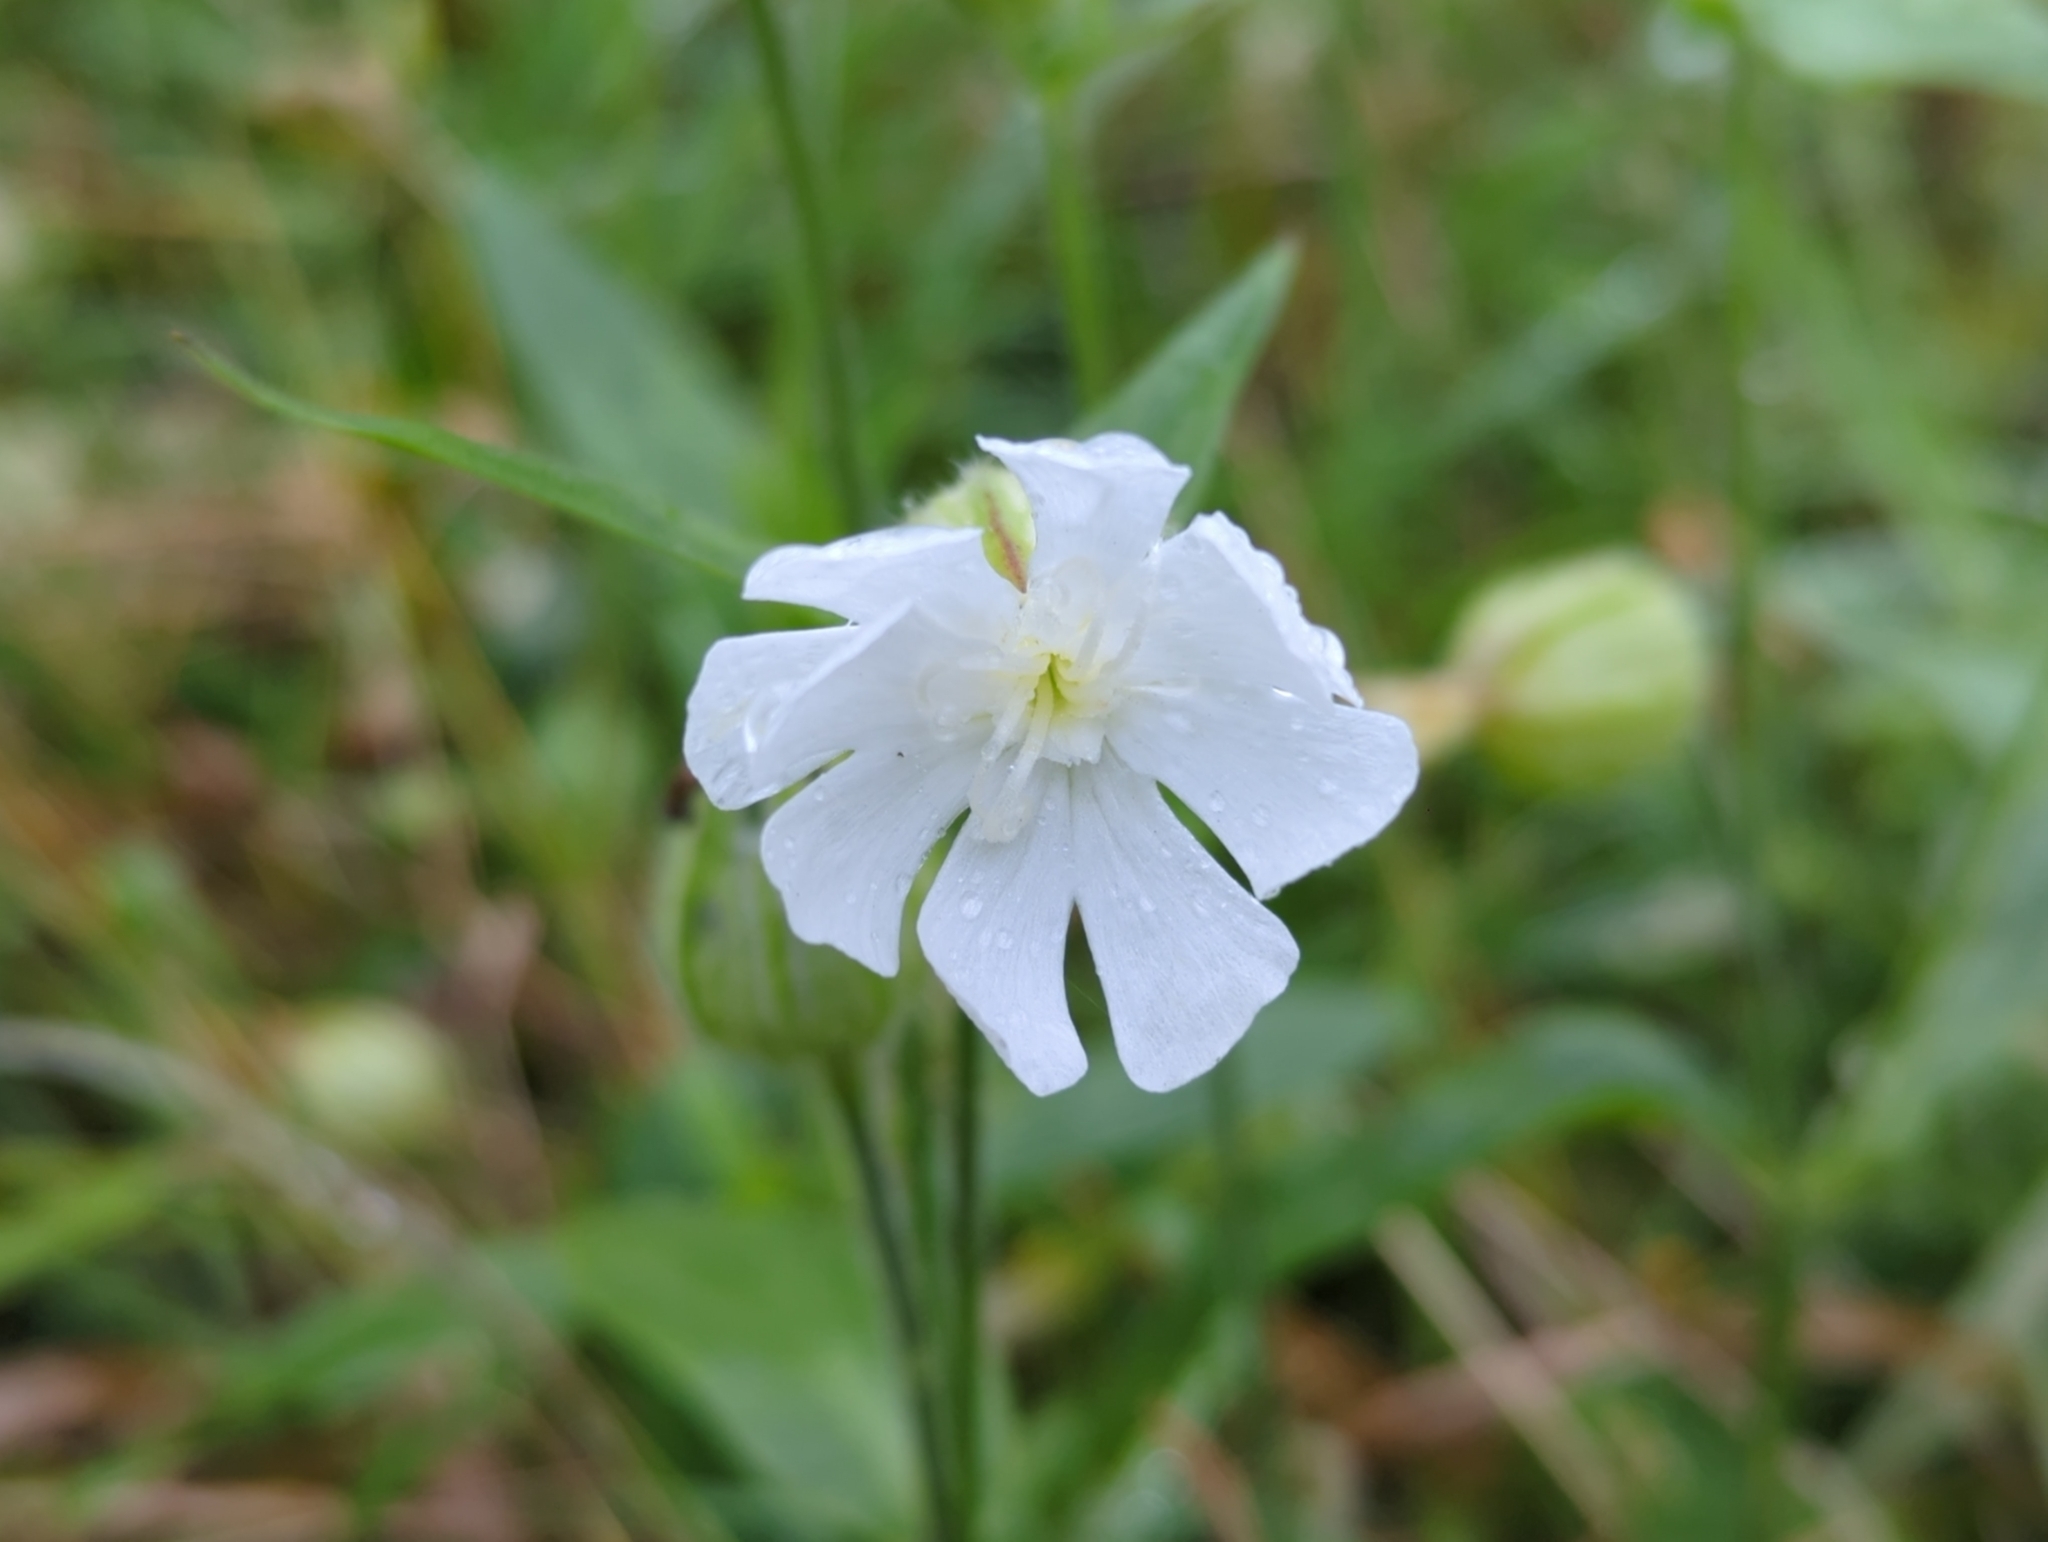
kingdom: Plantae
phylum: Tracheophyta
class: Magnoliopsida
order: Caryophyllales
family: Caryophyllaceae
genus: Silene
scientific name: Silene latifolia
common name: White campion
